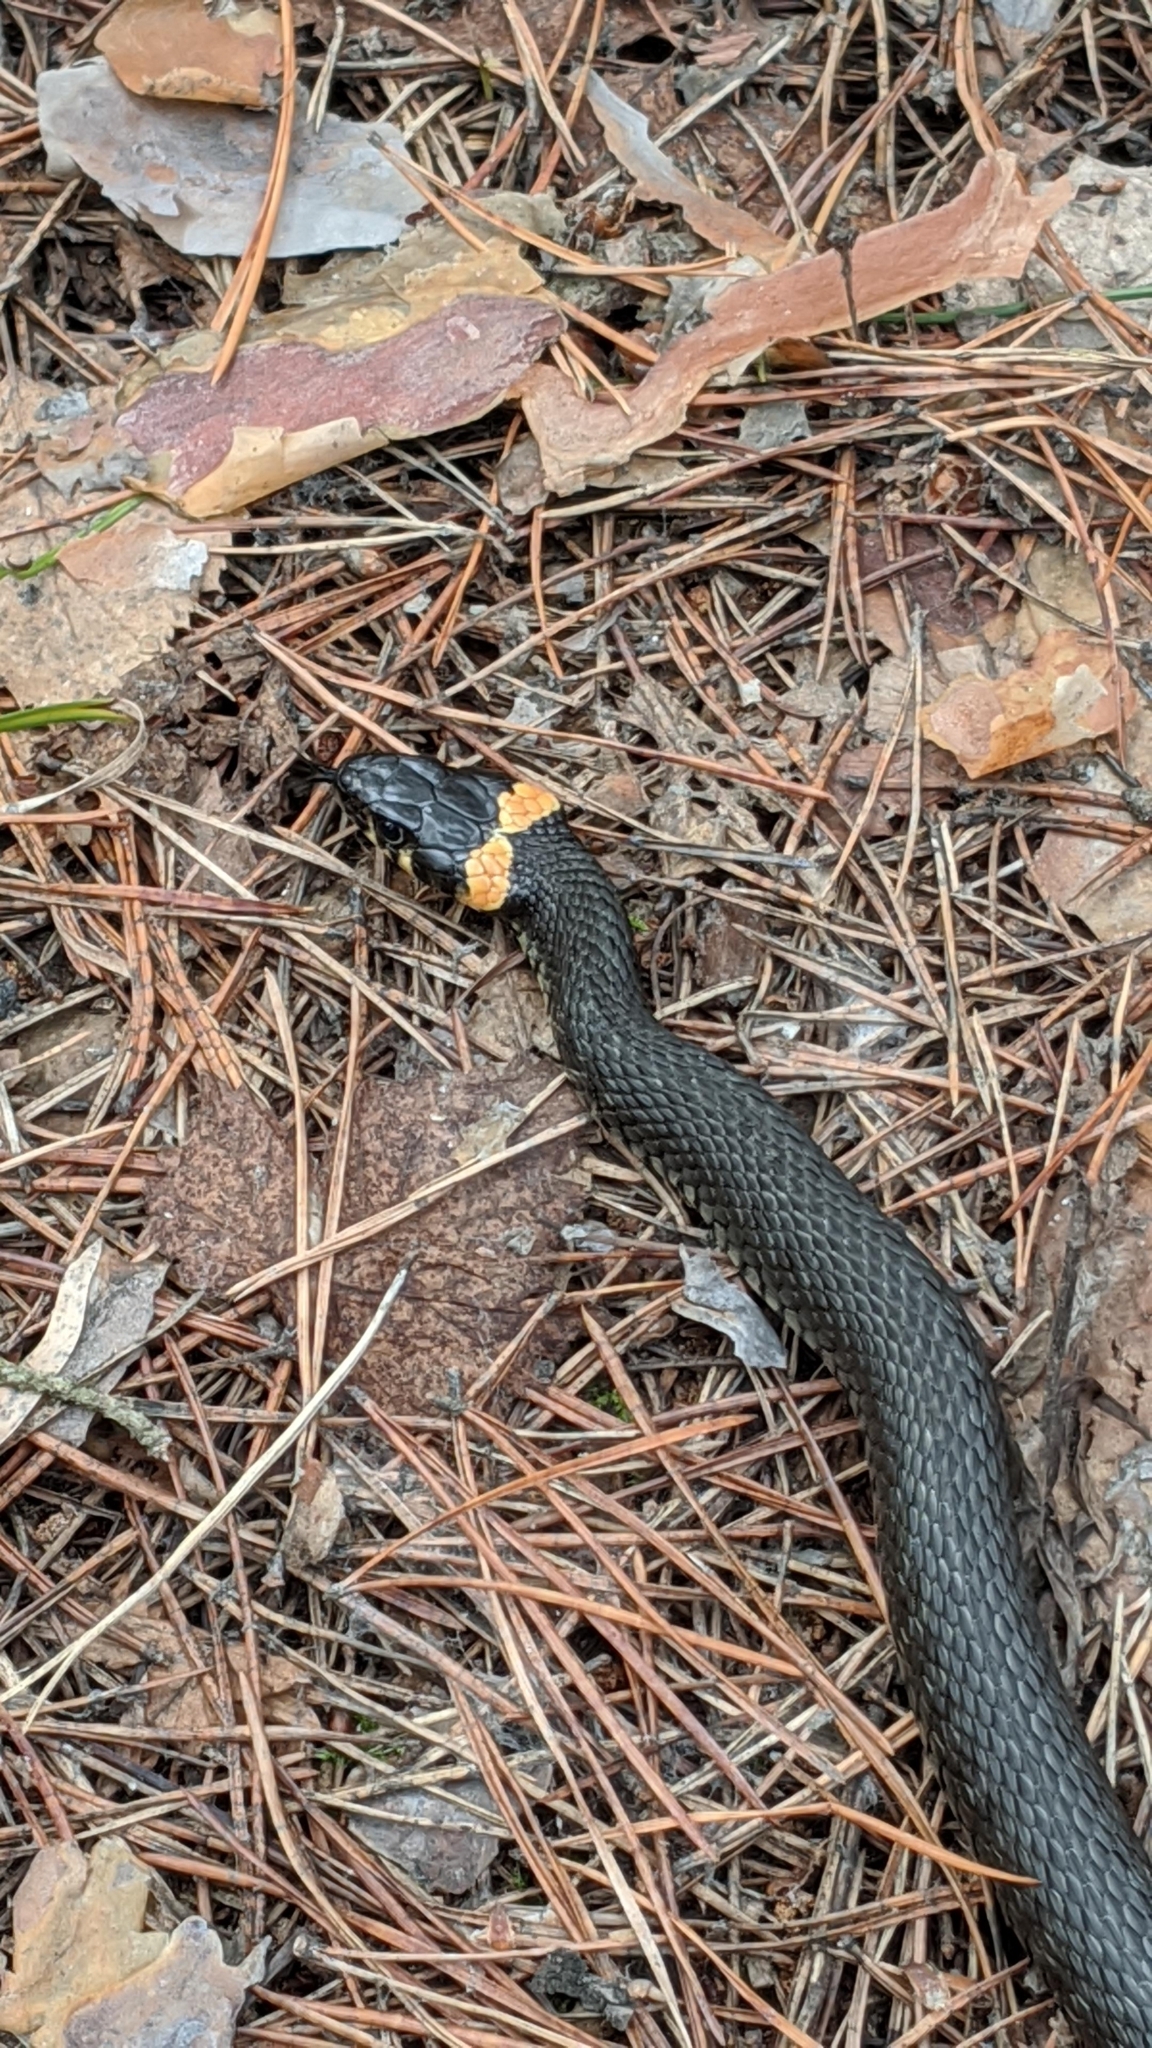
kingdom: Animalia
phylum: Chordata
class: Squamata
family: Colubridae
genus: Natrix
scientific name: Natrix natrix
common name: Grass snake
